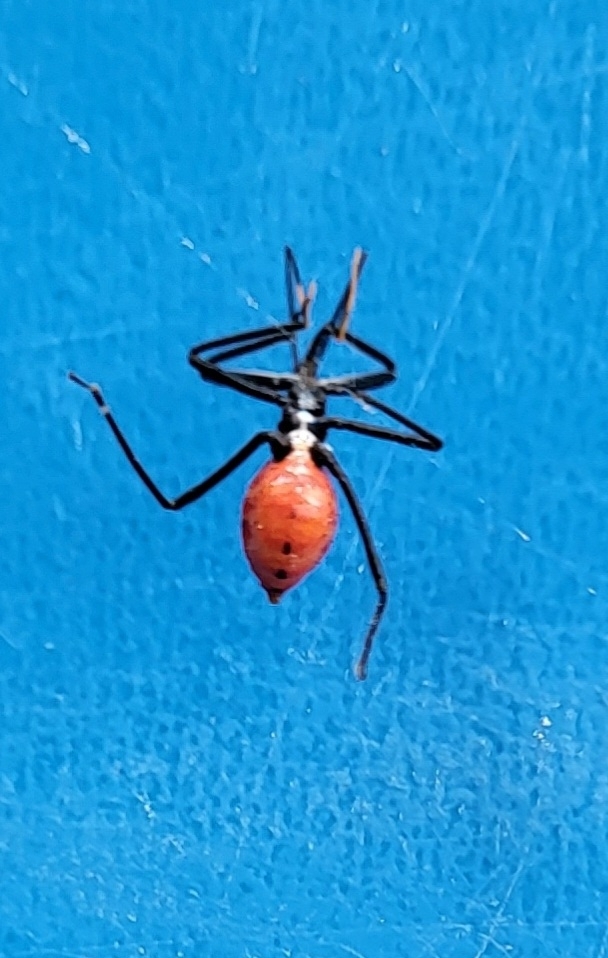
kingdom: Animalia
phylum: Arthropoda
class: Insecta
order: Hemiptera
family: Reduviidae
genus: Arilus
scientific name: Arilus cristatus
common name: North american wheel bug
